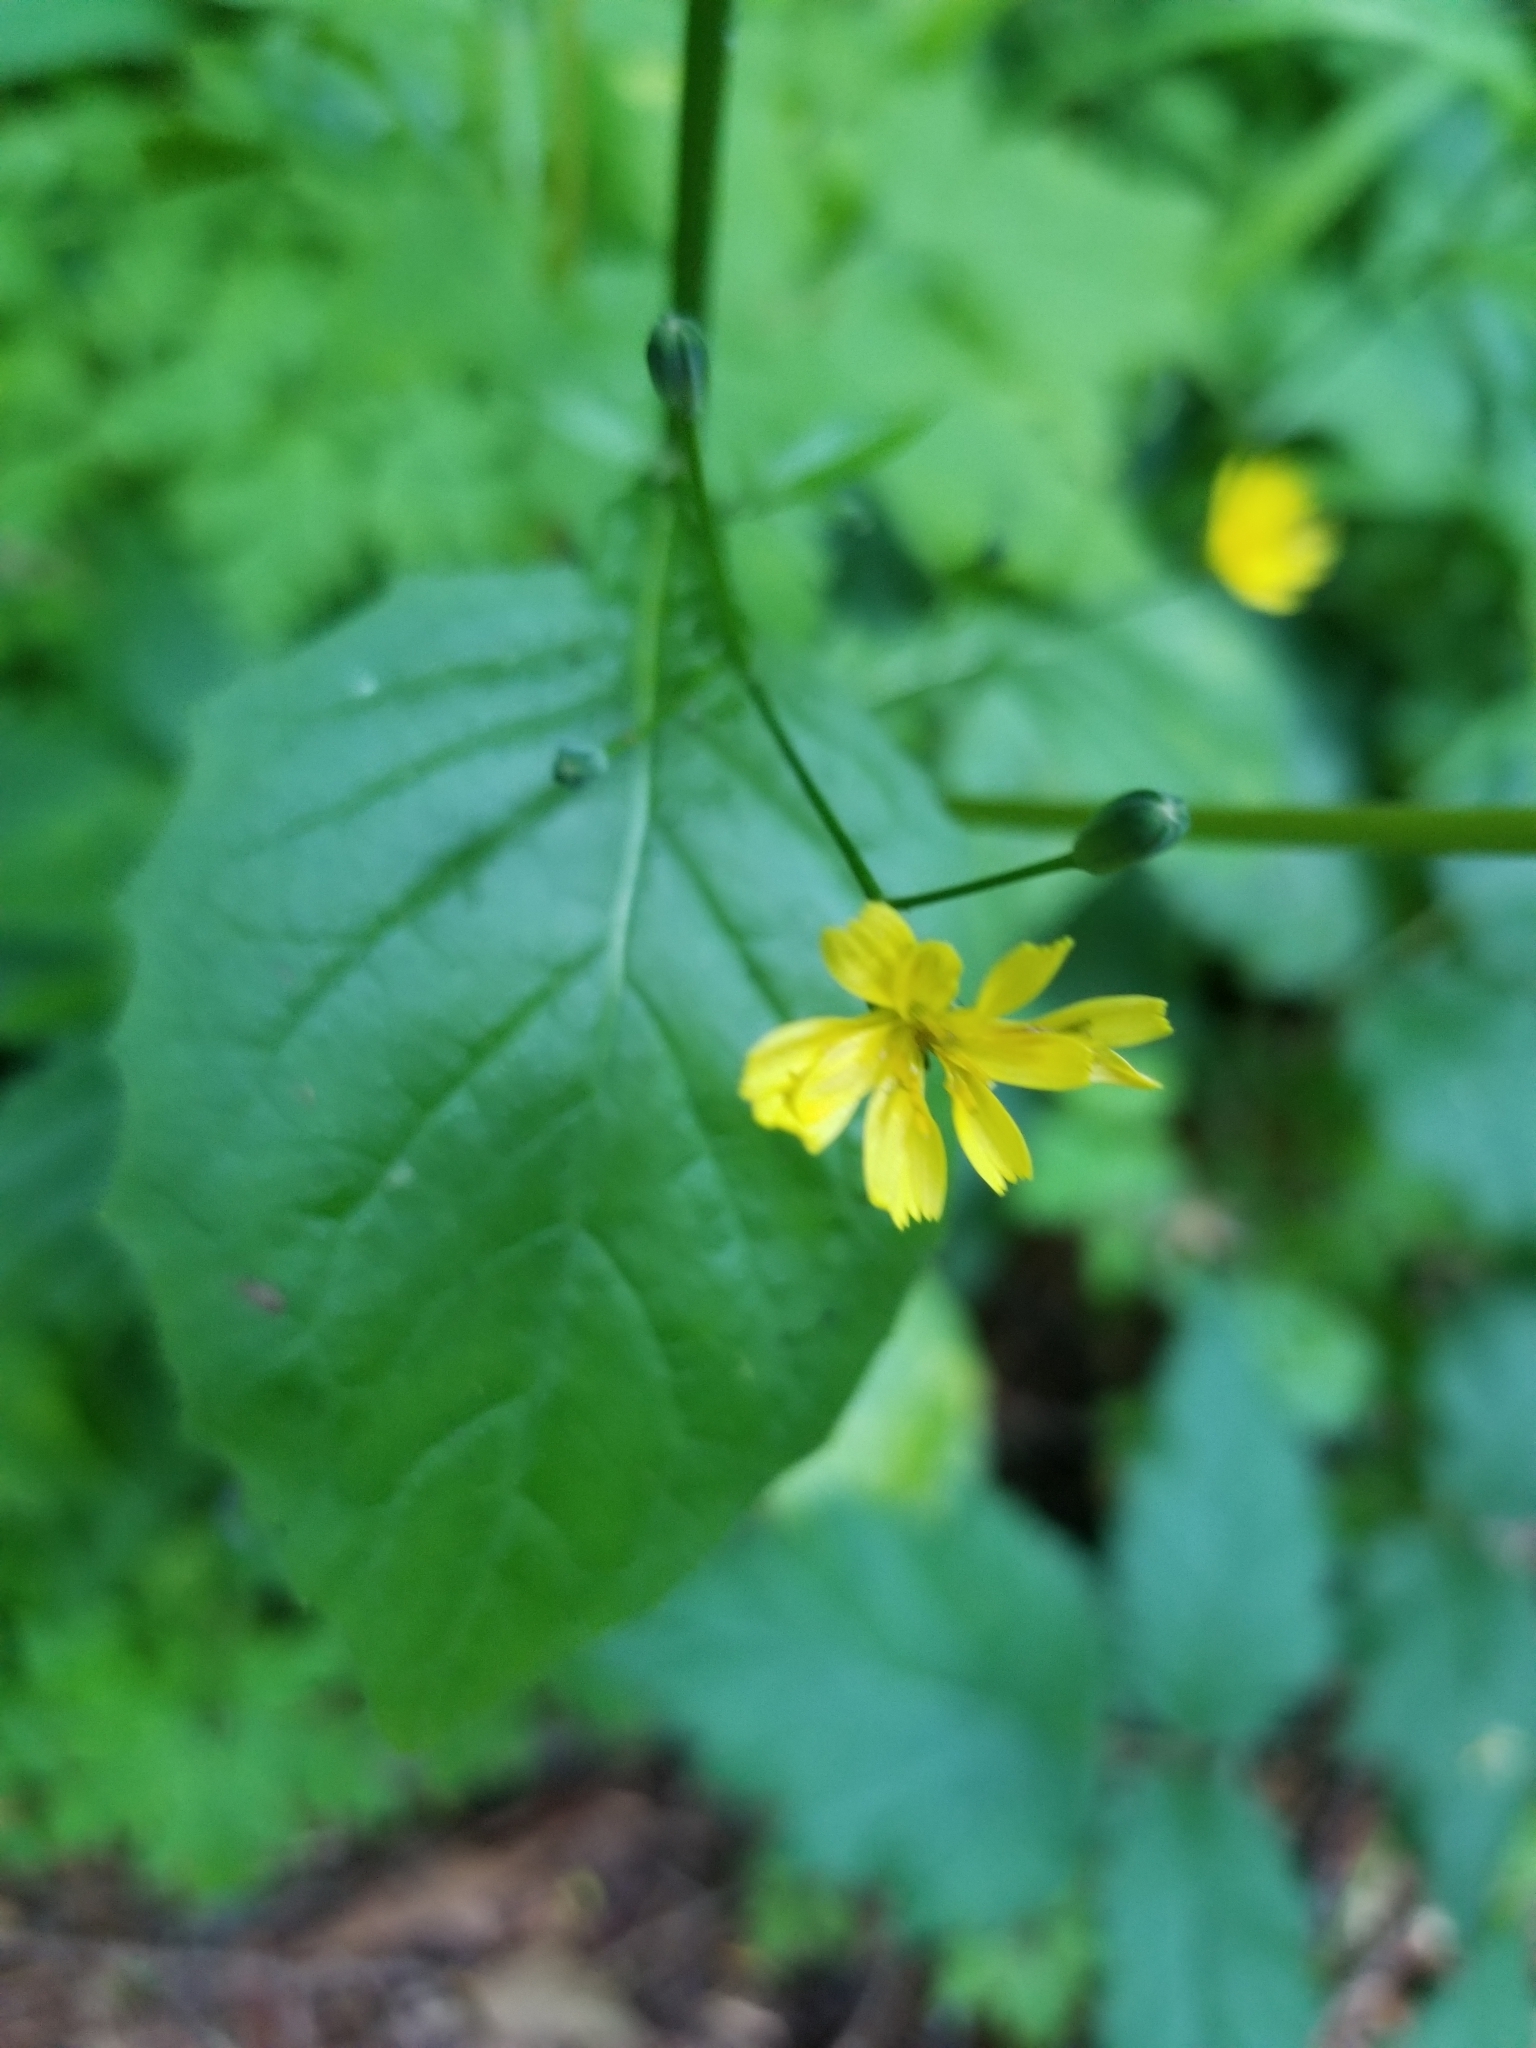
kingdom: Plantae
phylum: Tracheophyta
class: Magnoliopsida
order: Asterales
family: Asteraceae
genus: Lapsana
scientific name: Lapsana communis
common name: Nipplewort
